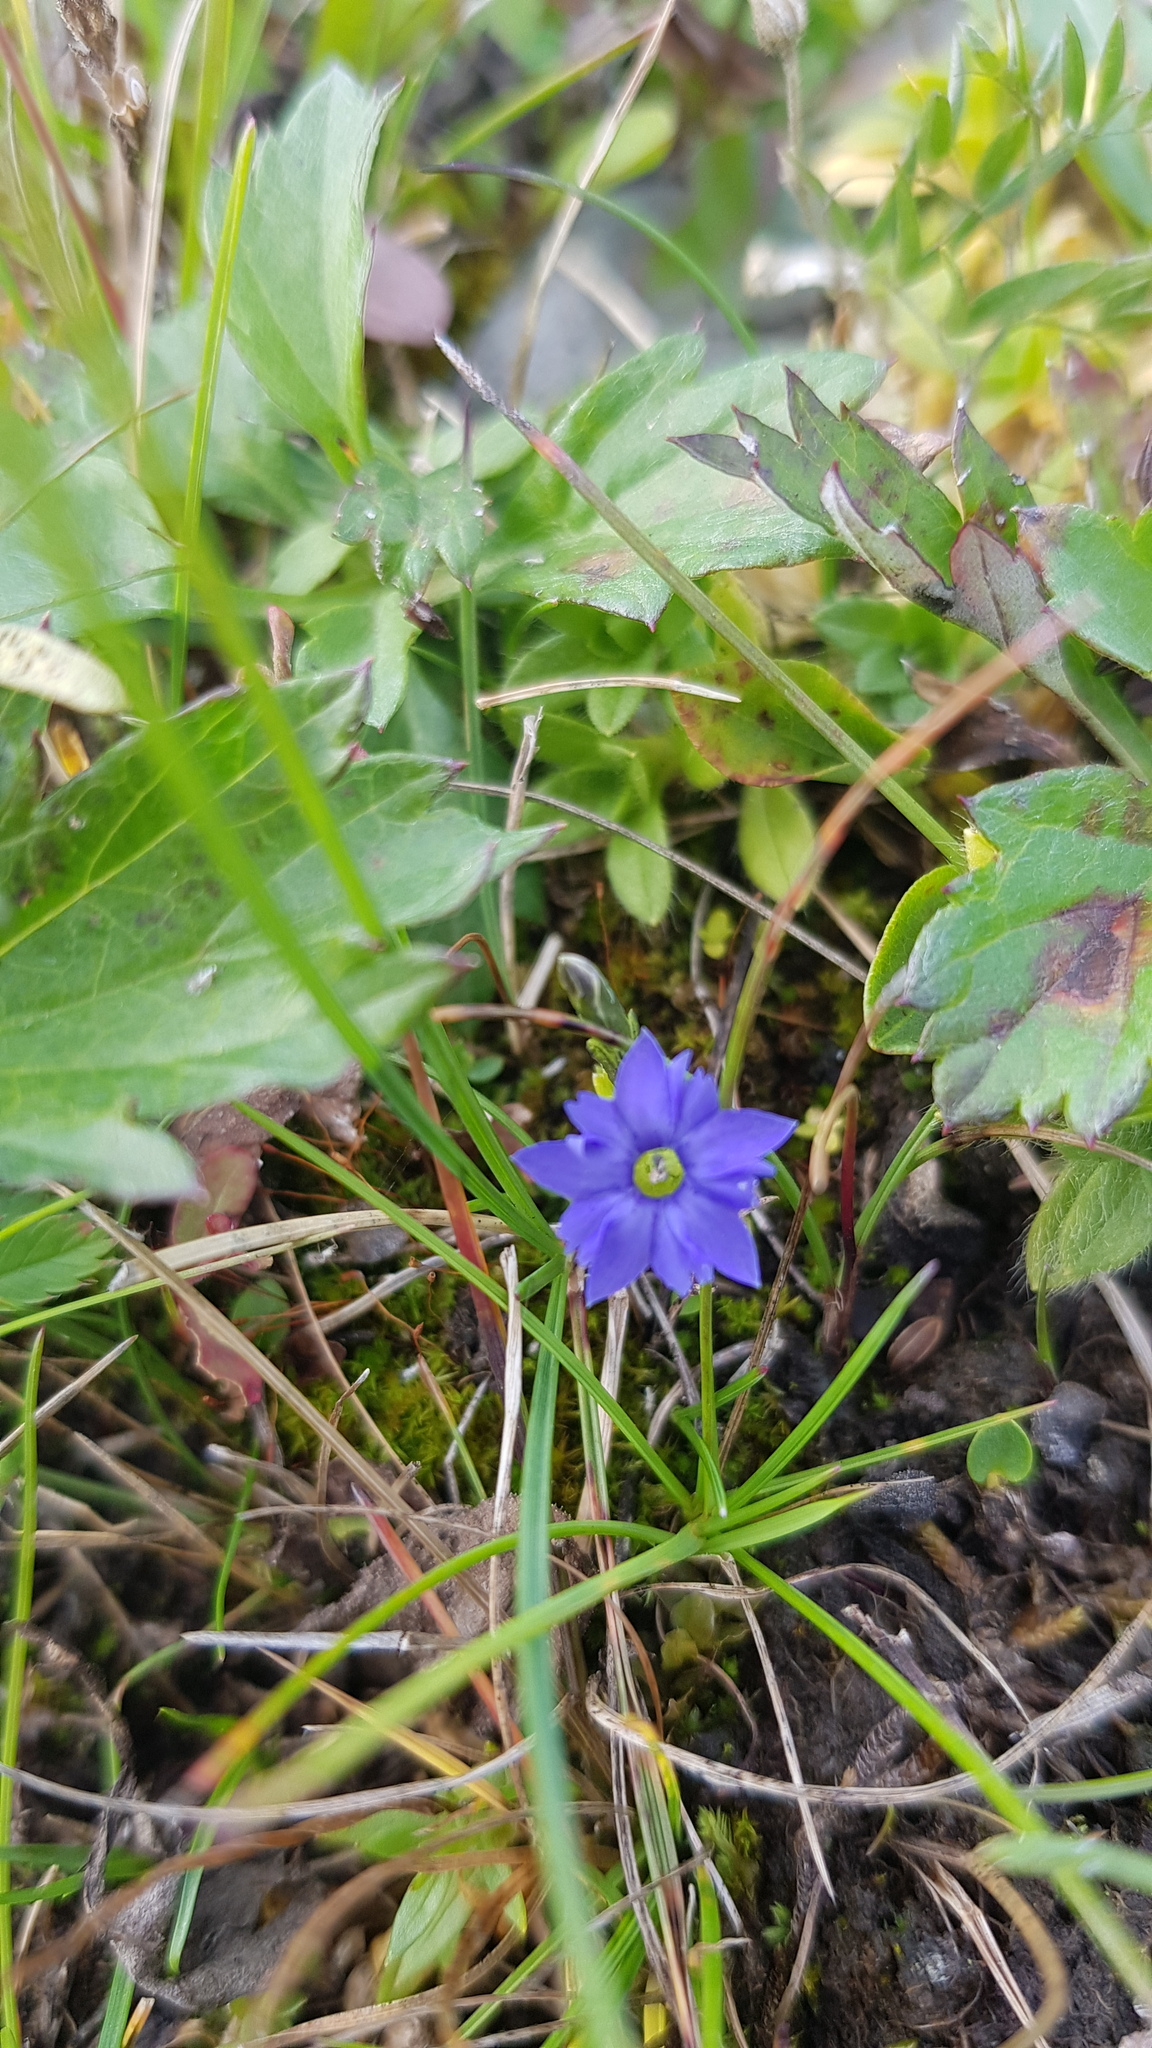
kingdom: Plantae
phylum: Tracheophyta
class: Magnoliopsida
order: Gentianales
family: Gentianaceae
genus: Gentiana
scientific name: Gentiana aquatica
